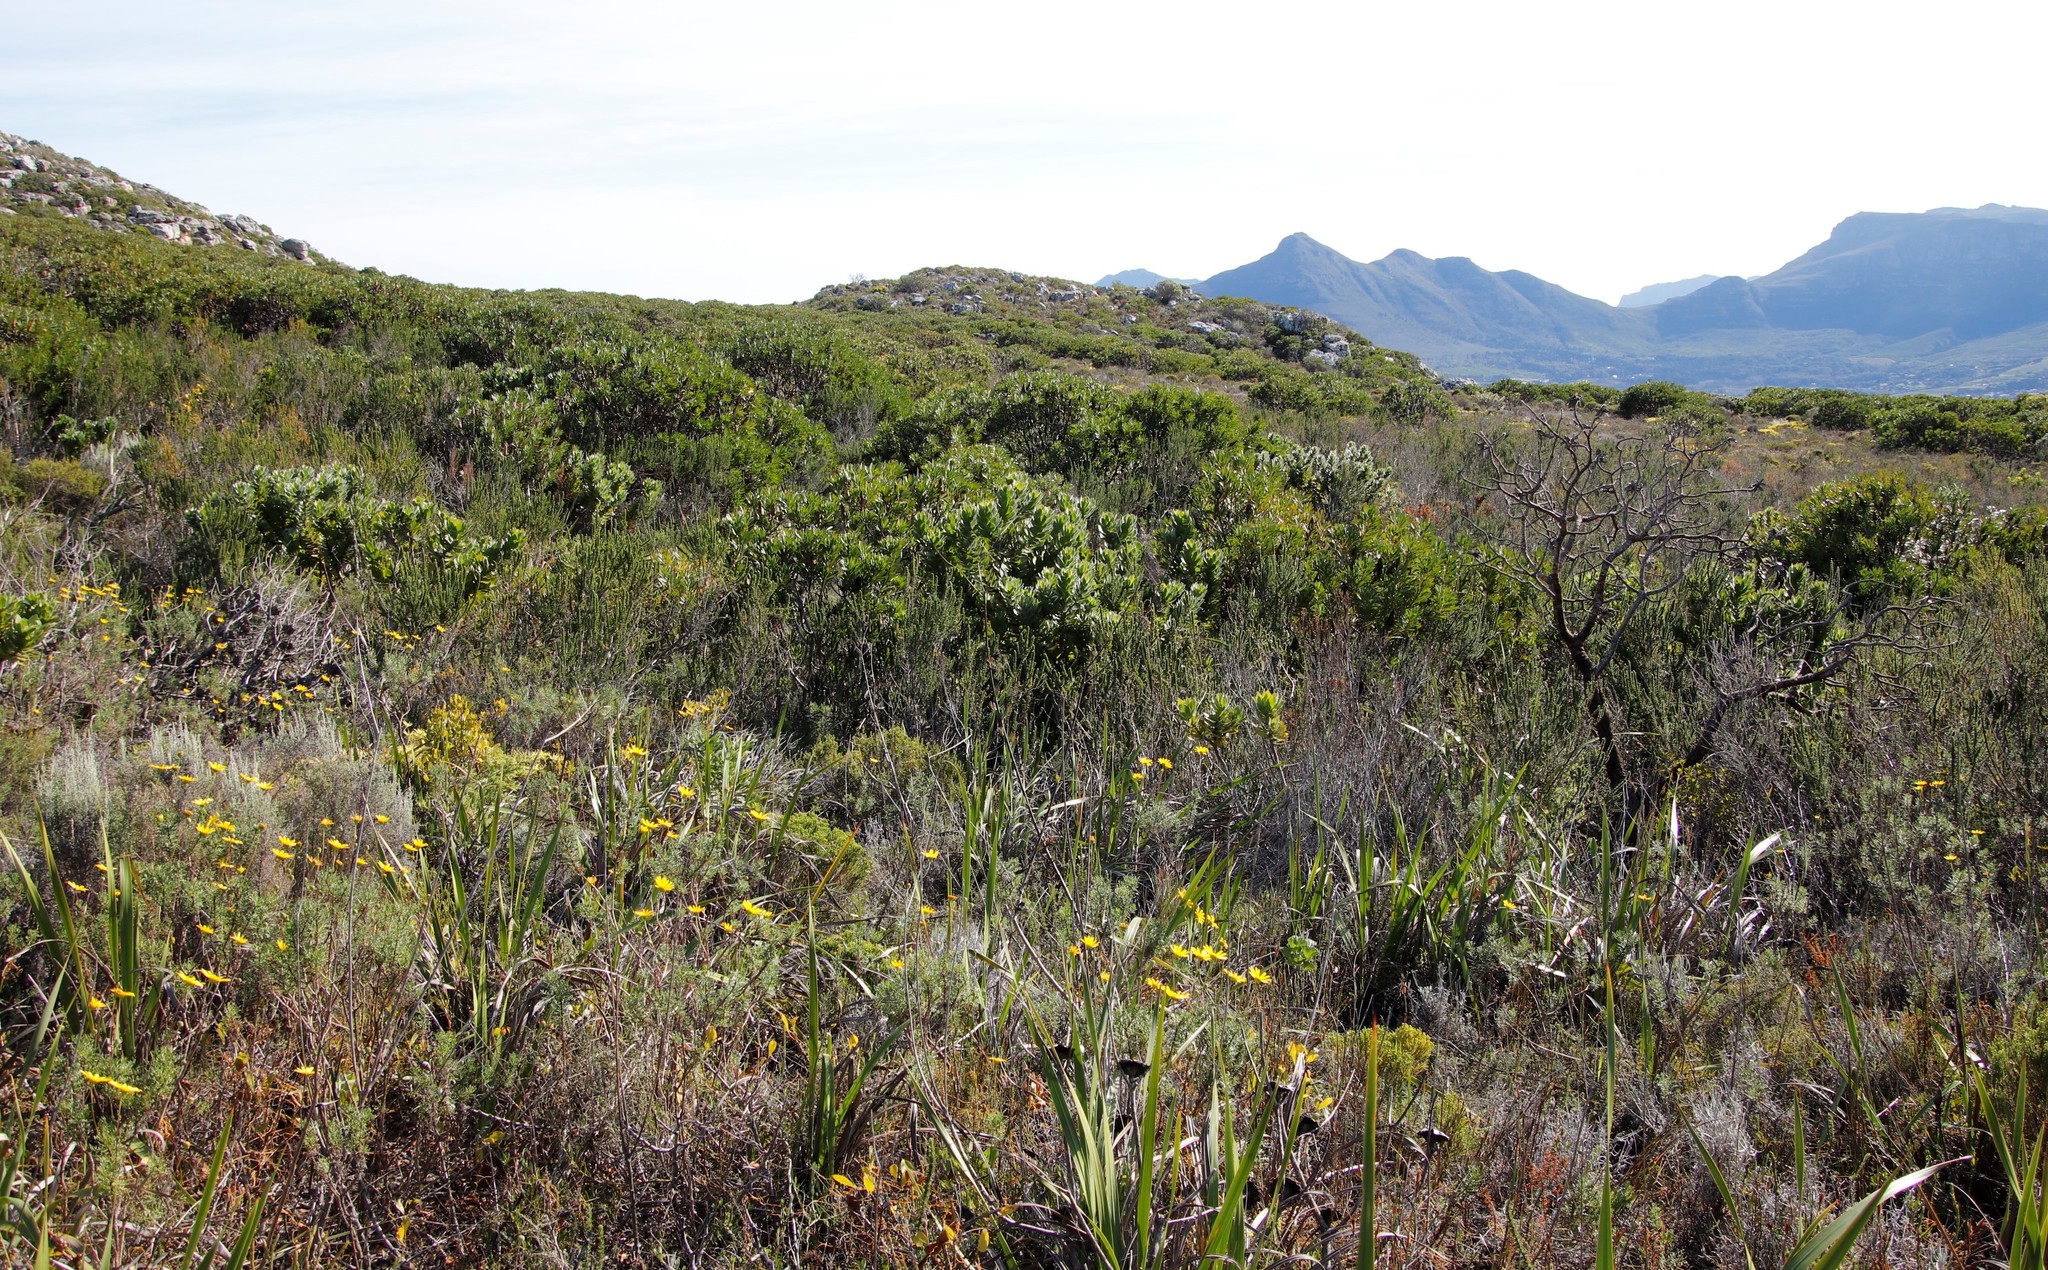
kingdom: Plantae
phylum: Tracheophyta
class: Magnoliopsida
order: Proteales
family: Proteaceae
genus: Leucospermum
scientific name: Leucospermum conocarpodendron
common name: Tree pincushion
